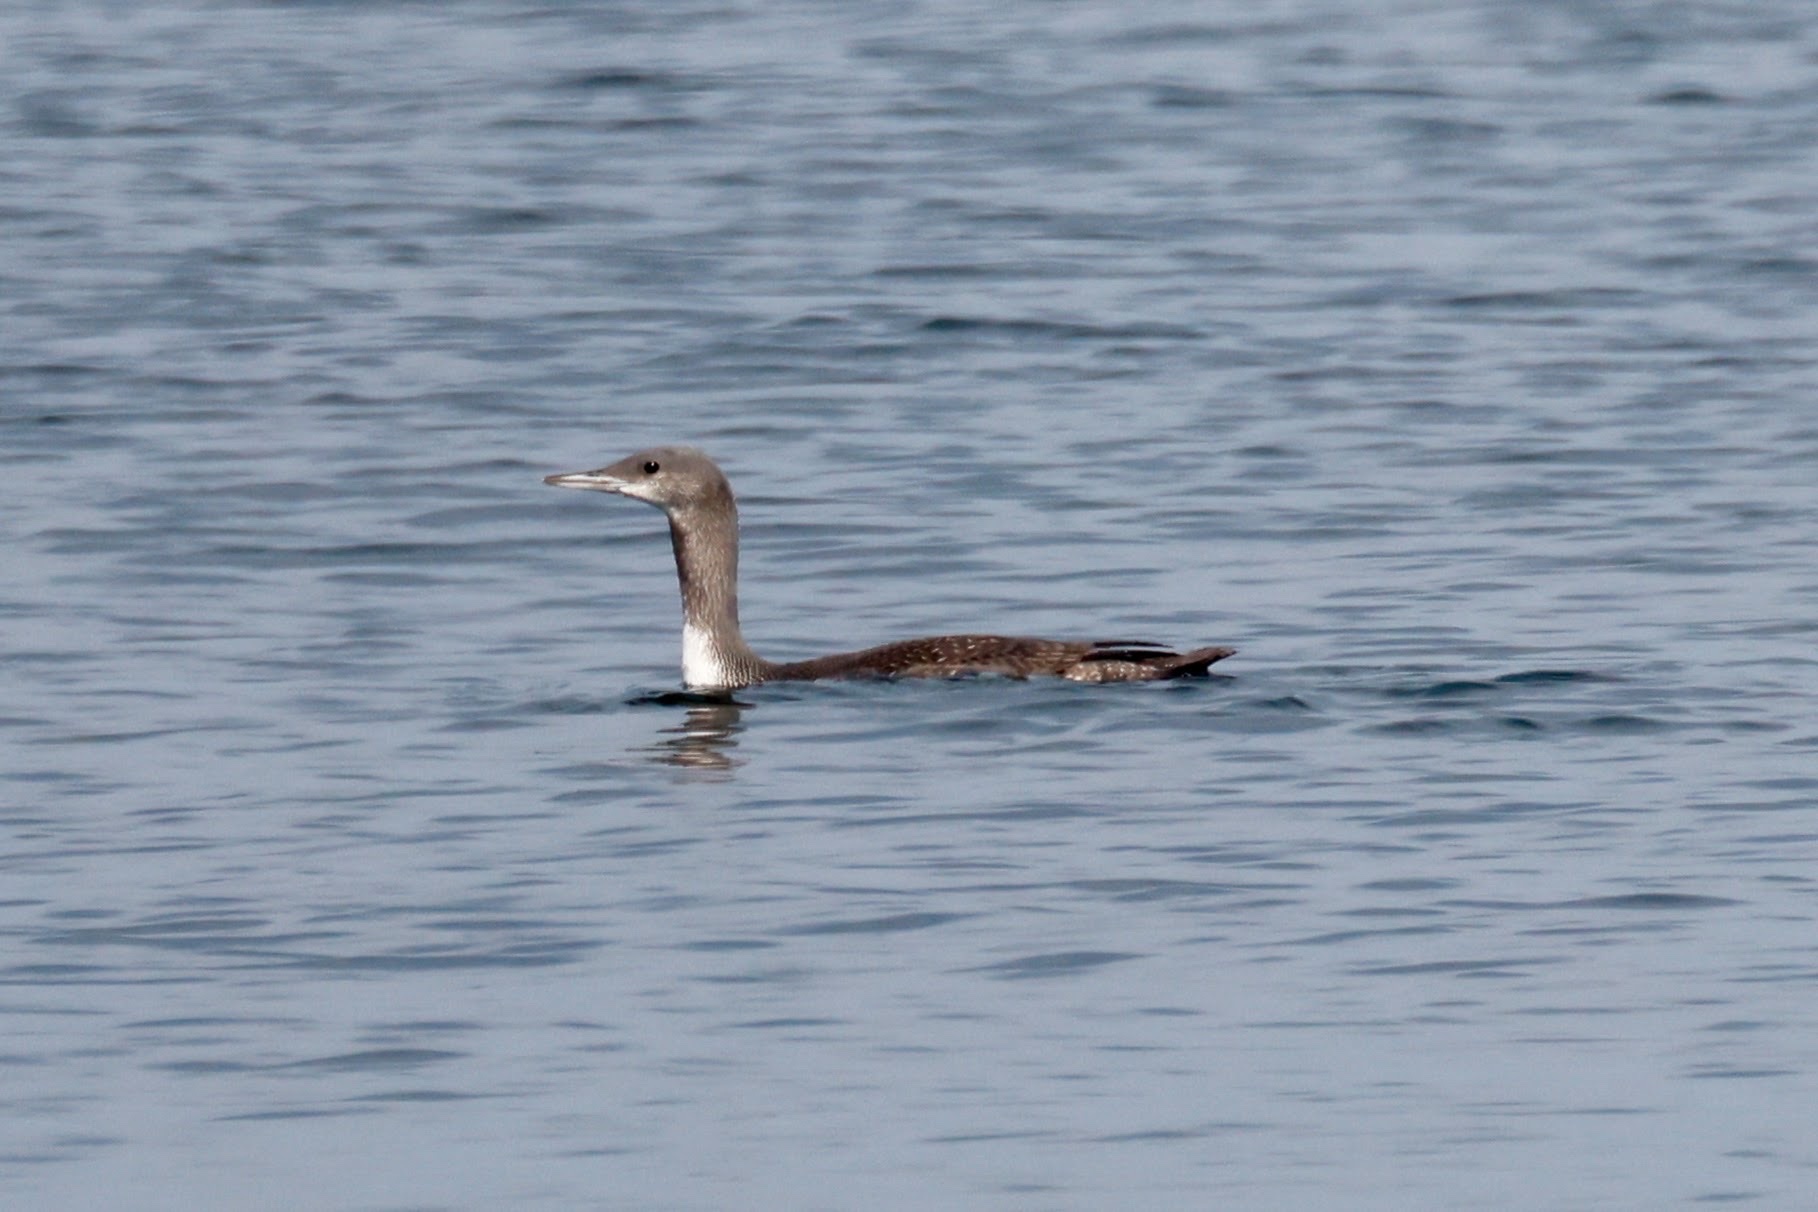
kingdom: Animalia
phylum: Chordata
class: Aves
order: Gaviiformes
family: Gaviidae
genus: Gavia
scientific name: Gavia stellata
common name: Red-throated loon
